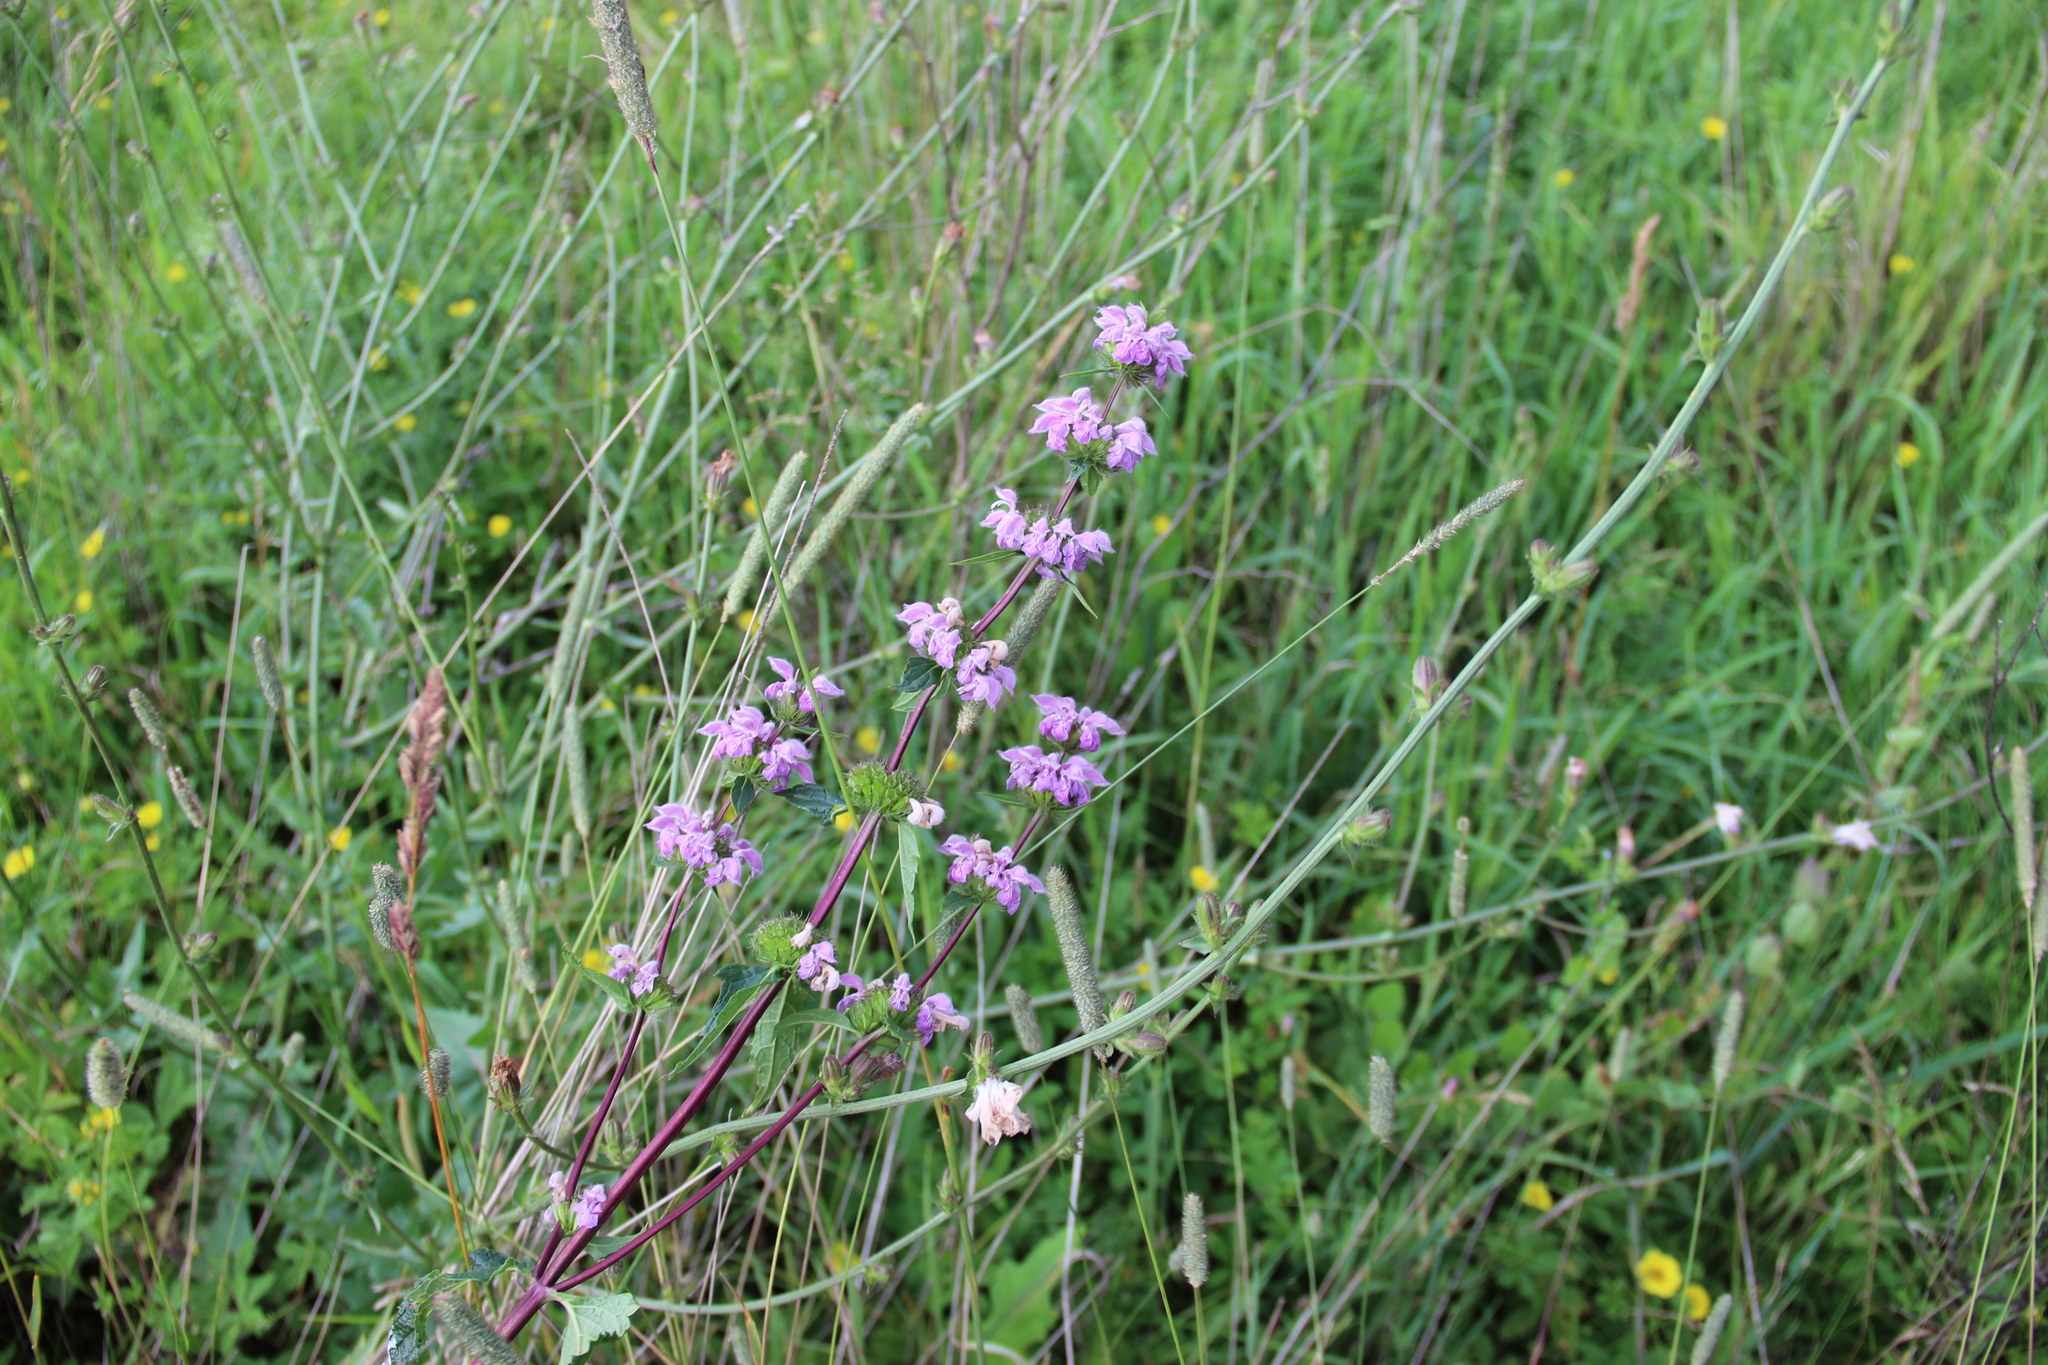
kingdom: Plantae
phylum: Tracheophyta
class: Magnoliopsida
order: Lamiales
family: Lamiaceae
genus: Phlomoides
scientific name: Phlomoides tuberosa
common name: Tuberous jerusalem sage
